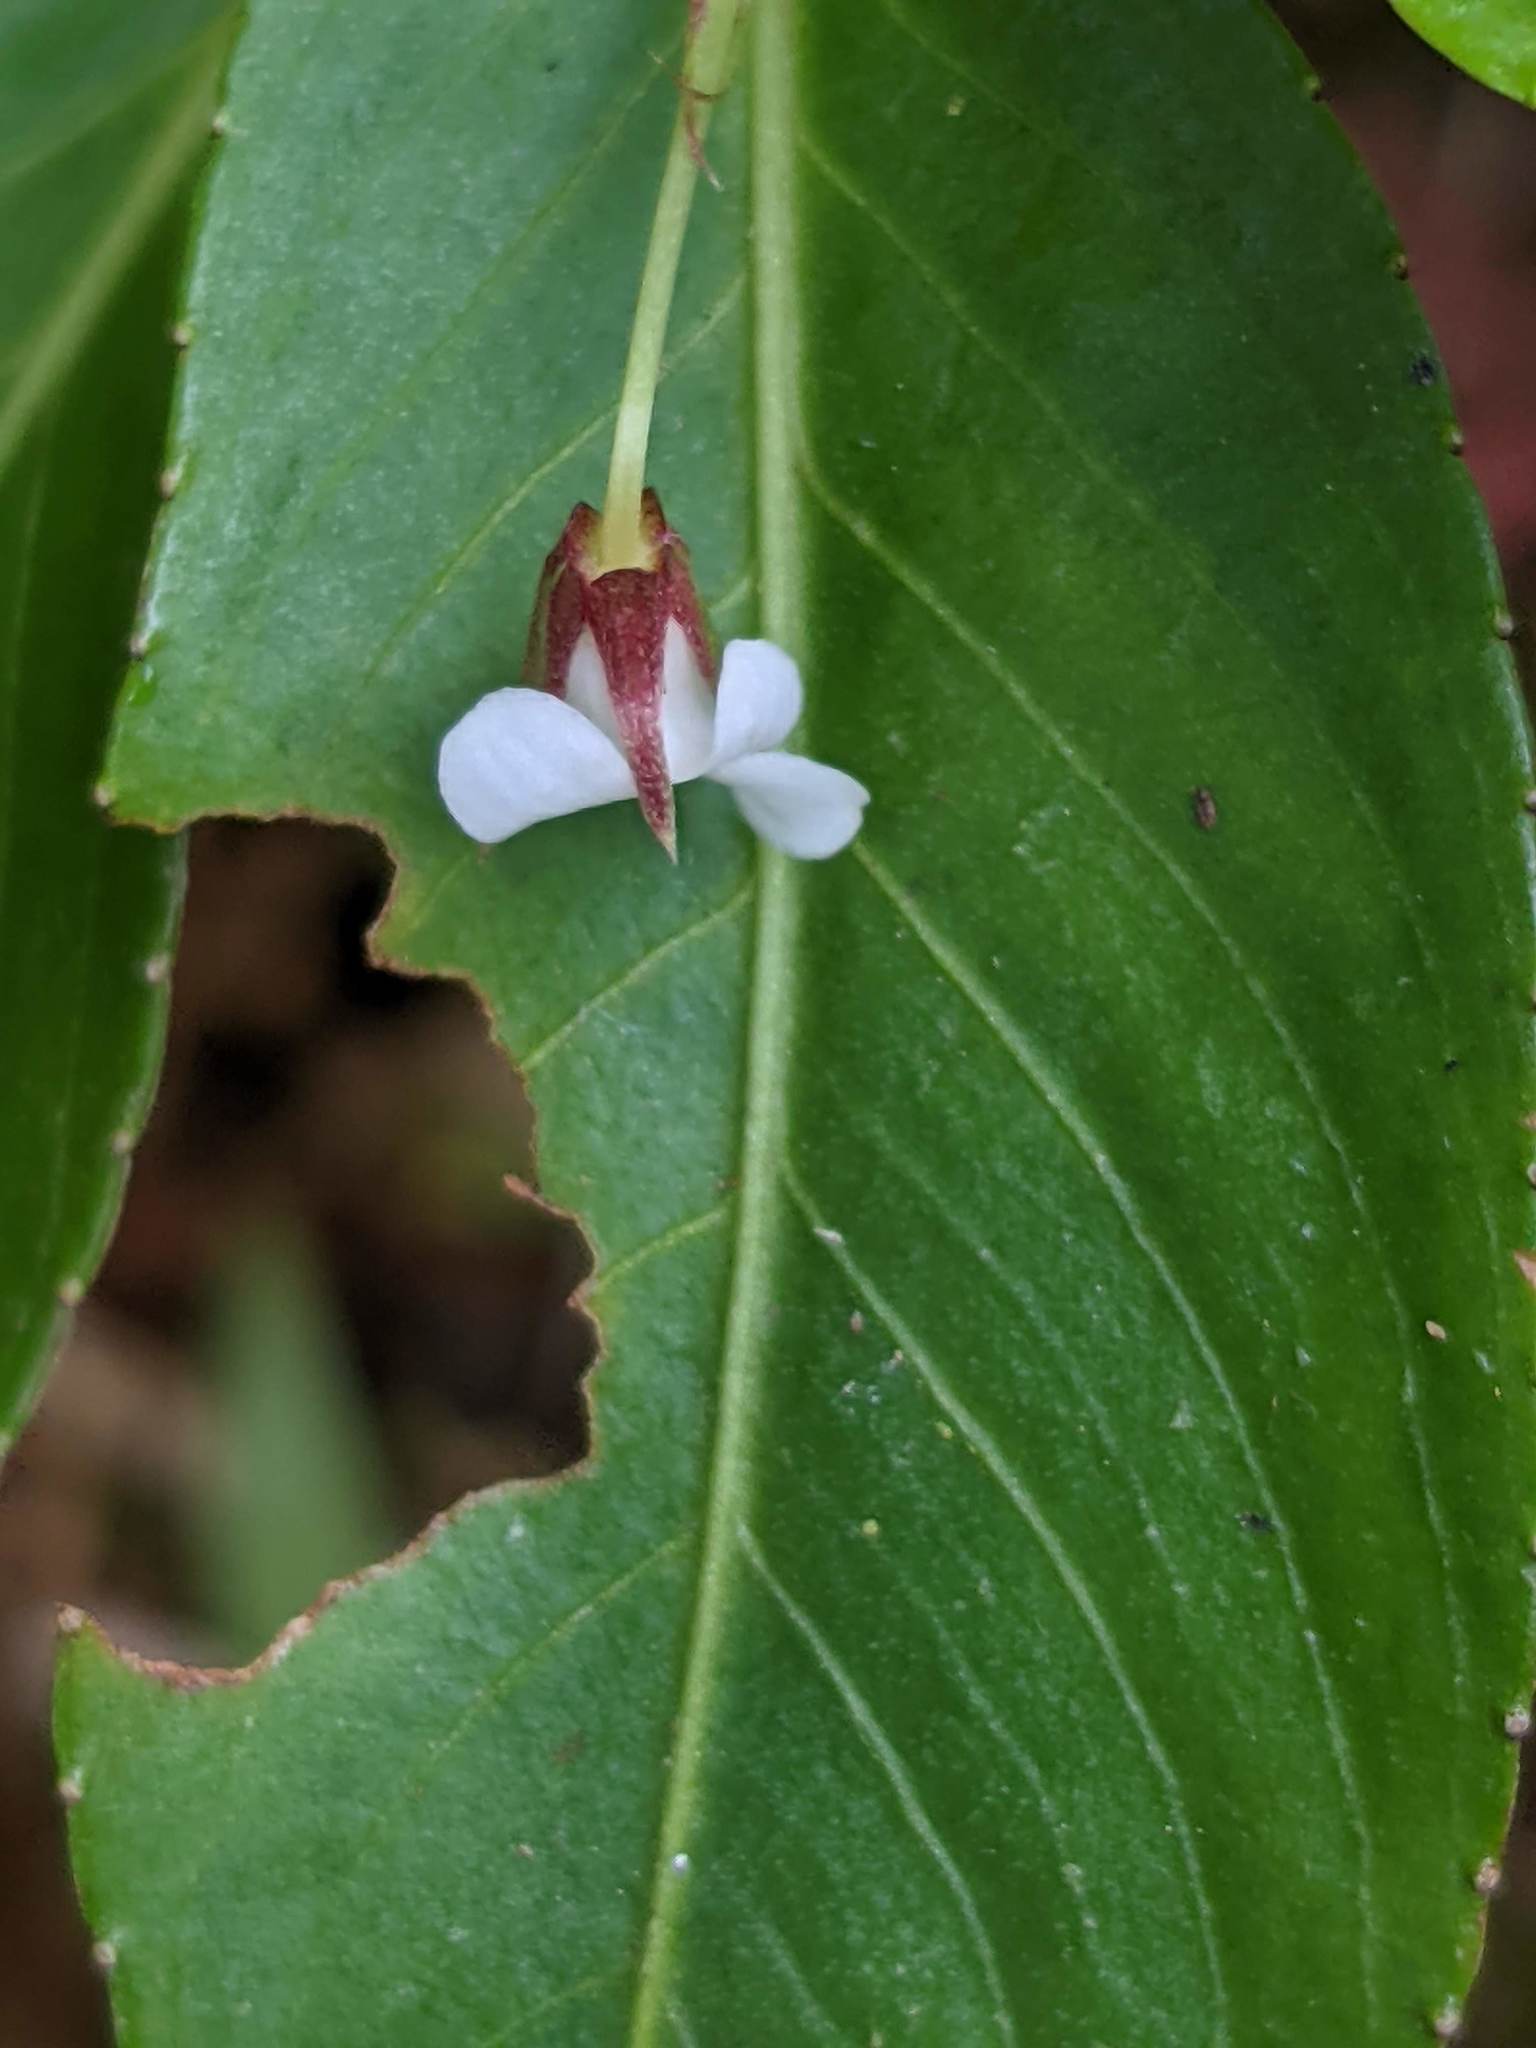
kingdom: Plantae
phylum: Tracheophyta
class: Magnoliopsida
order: Malpighiales
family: Violaceae
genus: Viola
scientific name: Viola stipularis
